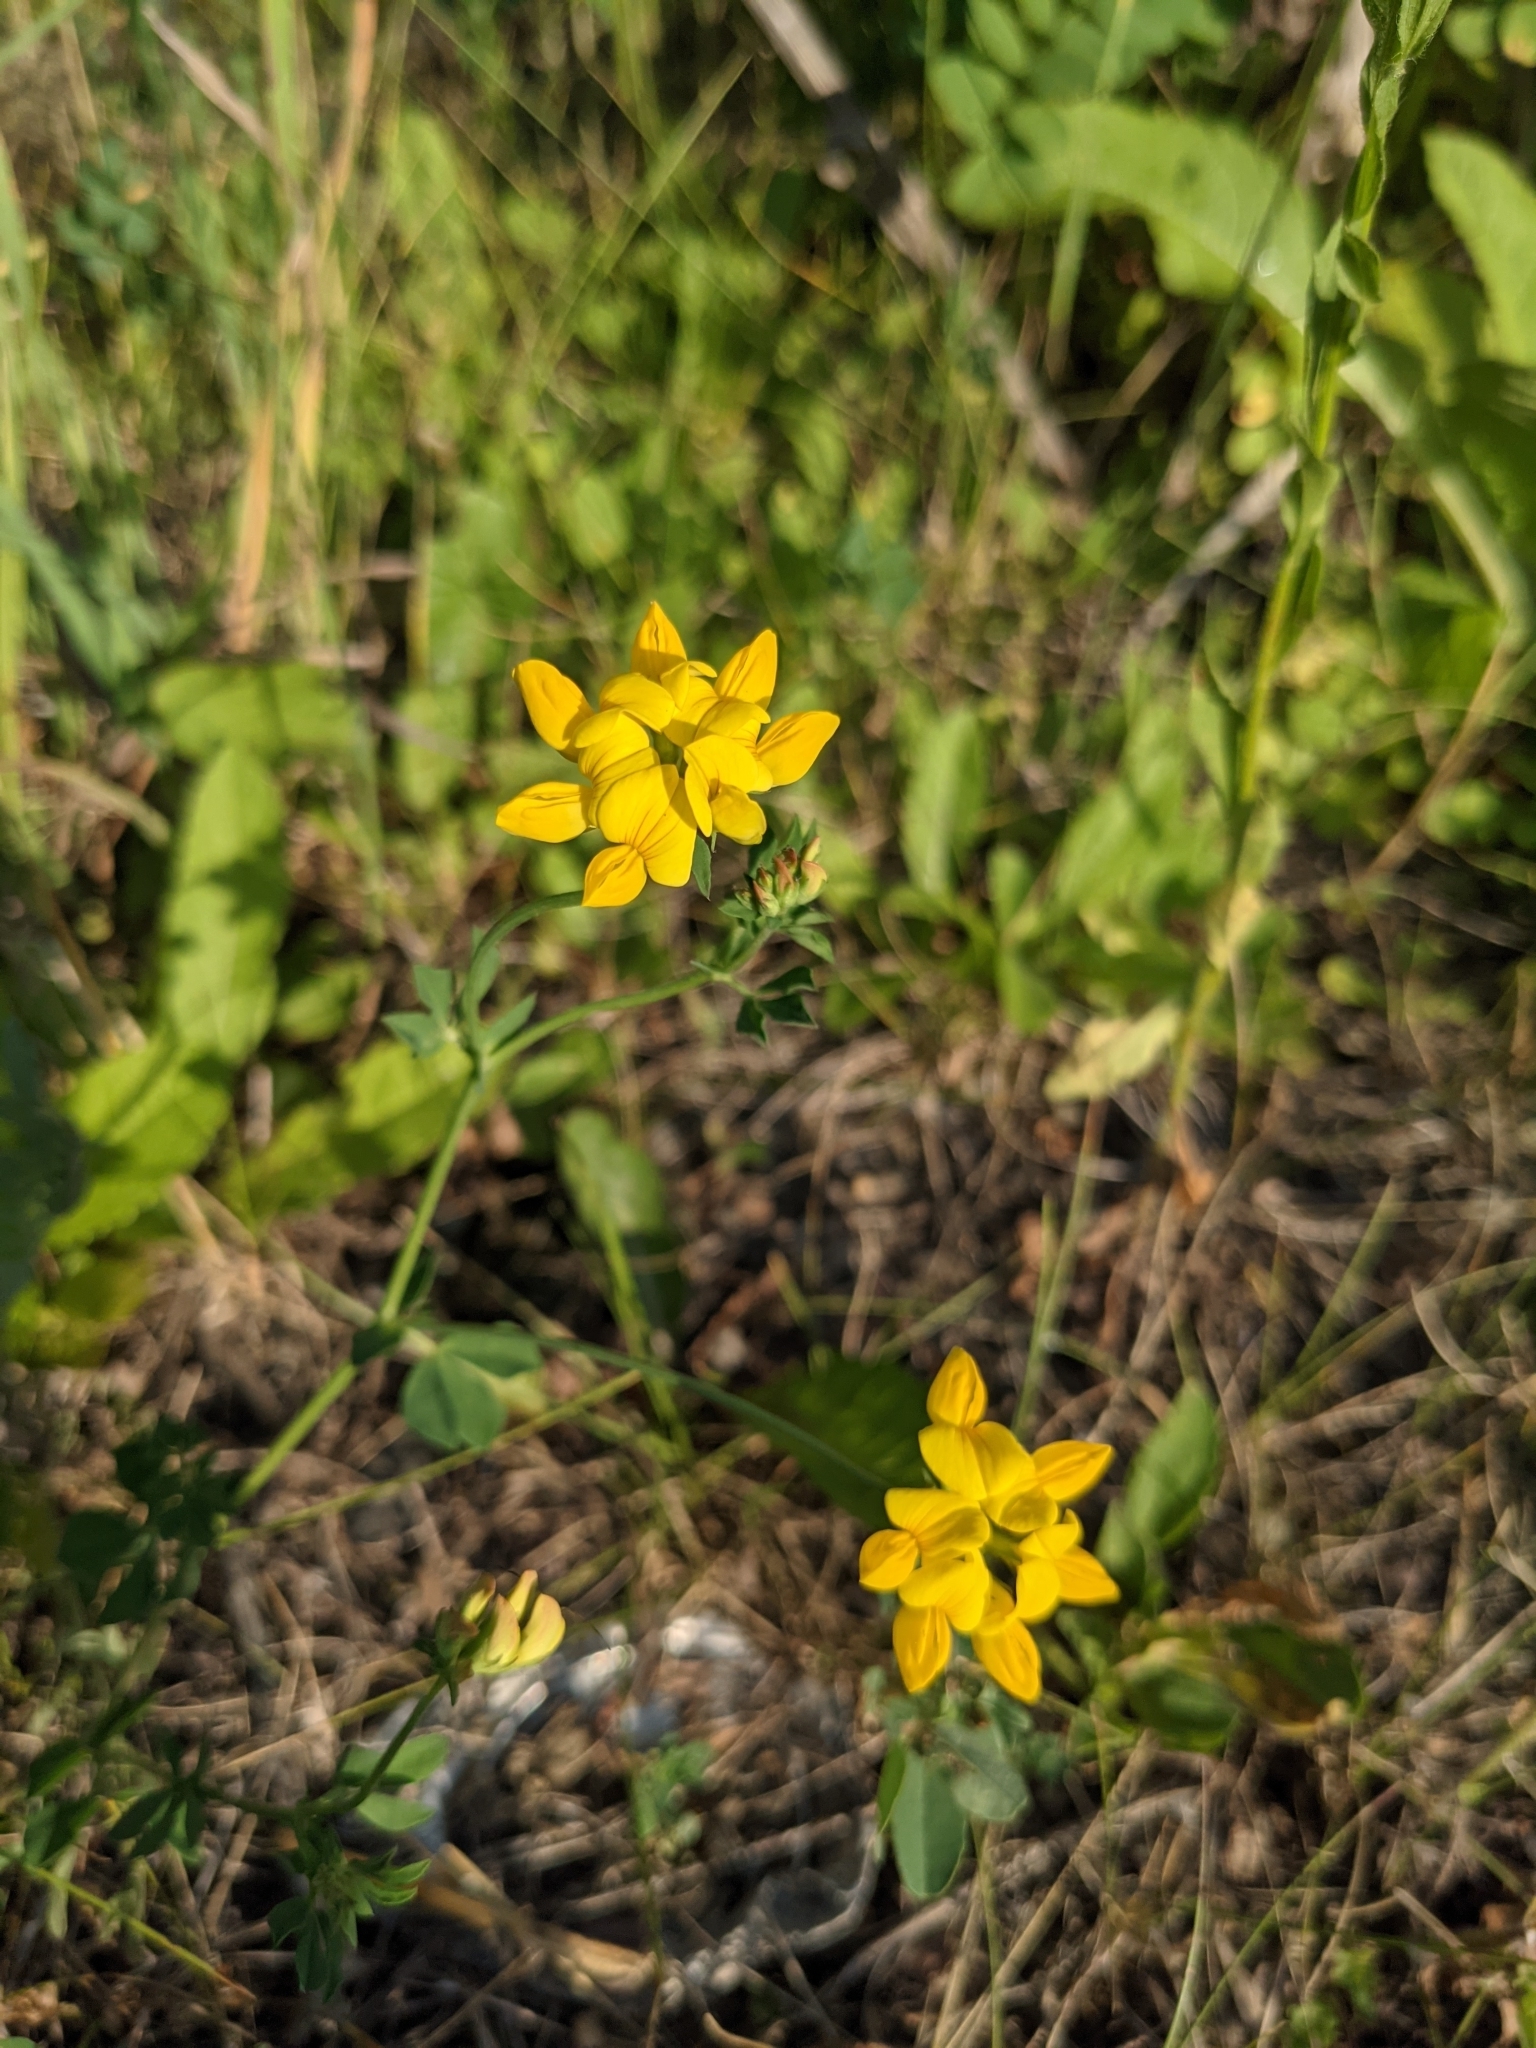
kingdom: Plantae
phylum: Tracheophyta
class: Magnoliopsida
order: Fabales
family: Fabaceae
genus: Lotus
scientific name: Lotus corniculatus
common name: Common bird's-foot-trefoil
